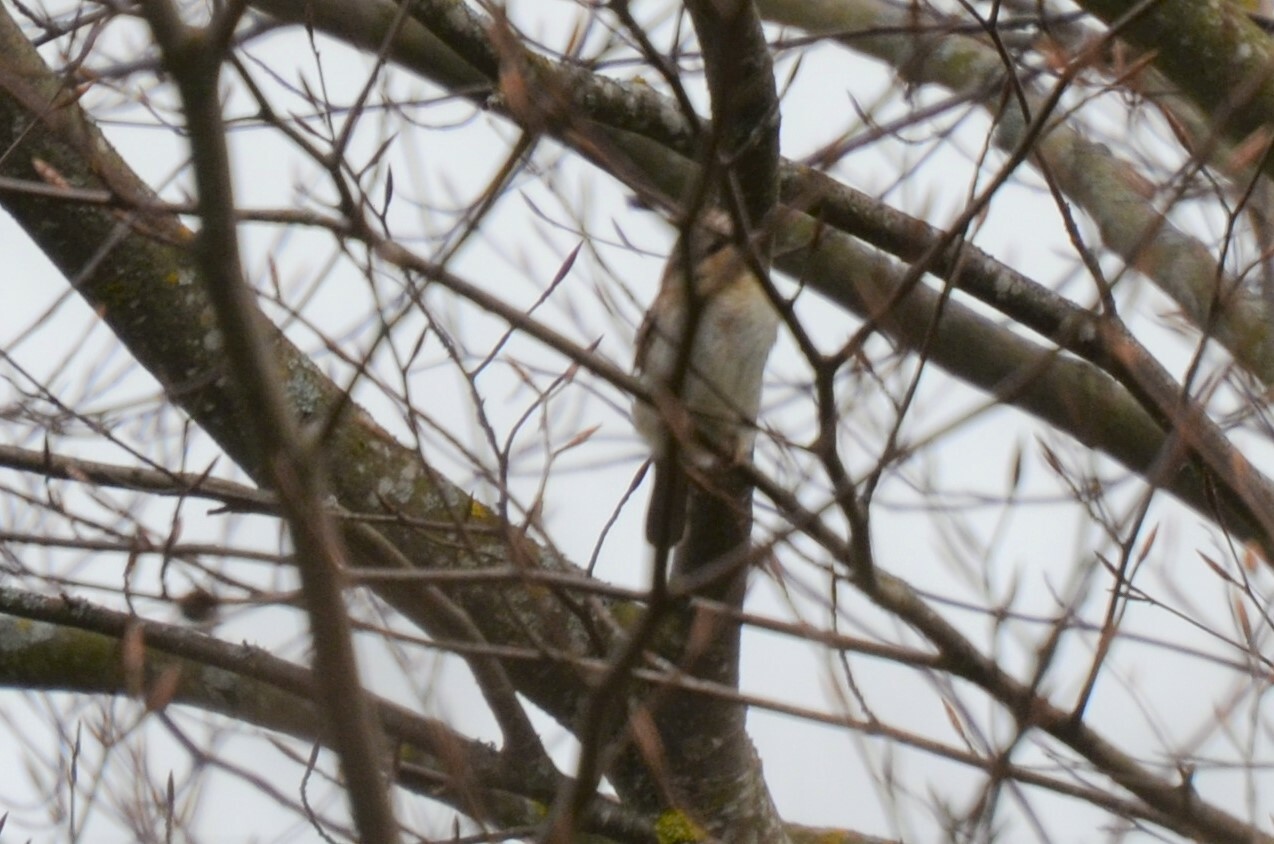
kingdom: Animalia
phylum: Chordata
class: Aves
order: Piciformes
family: Picidae
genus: Jynx
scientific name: Jynx torquilla
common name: Eurasian wryneck
